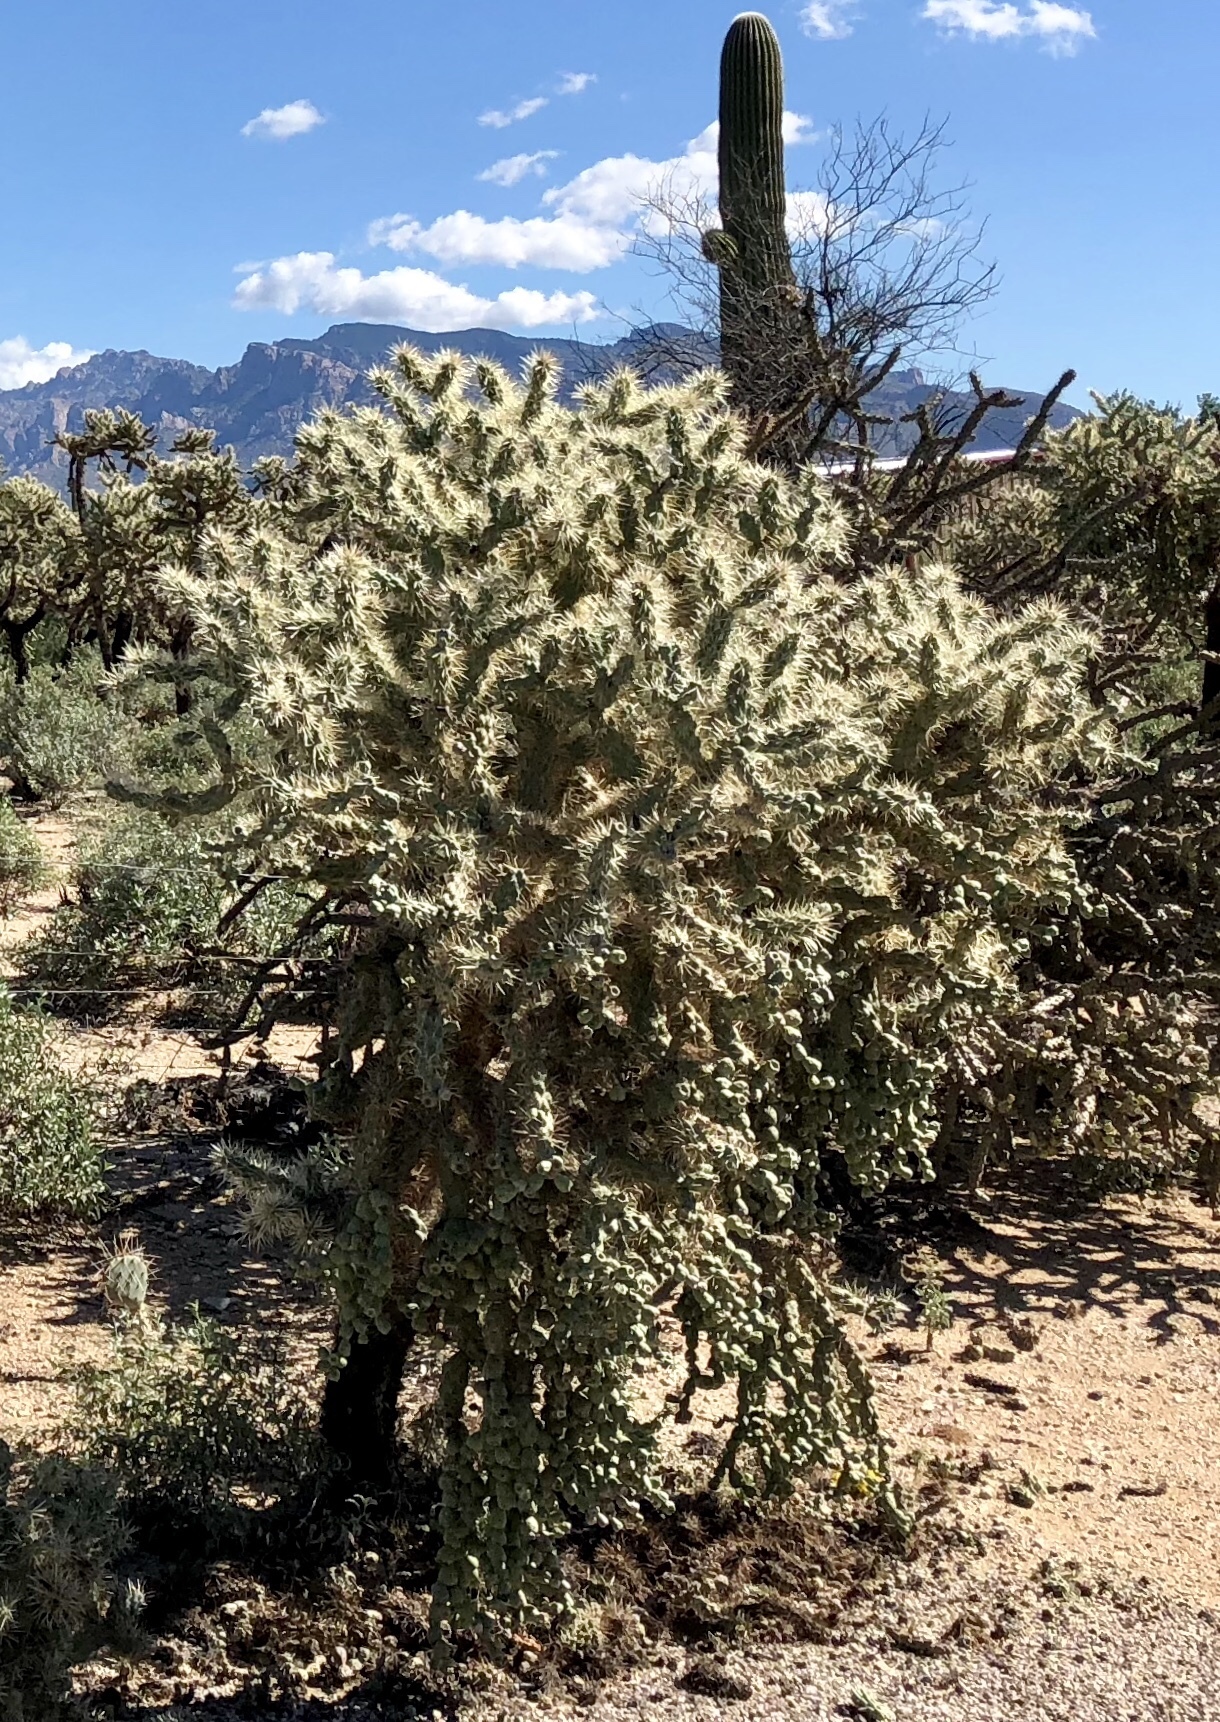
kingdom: Plantae
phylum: Tracheophyta
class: Magnoliopsida
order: Caryophyllales
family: Cactaceae
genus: Cylindropuntia
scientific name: Cylindropuntia fulgida
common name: Jumping cholla
